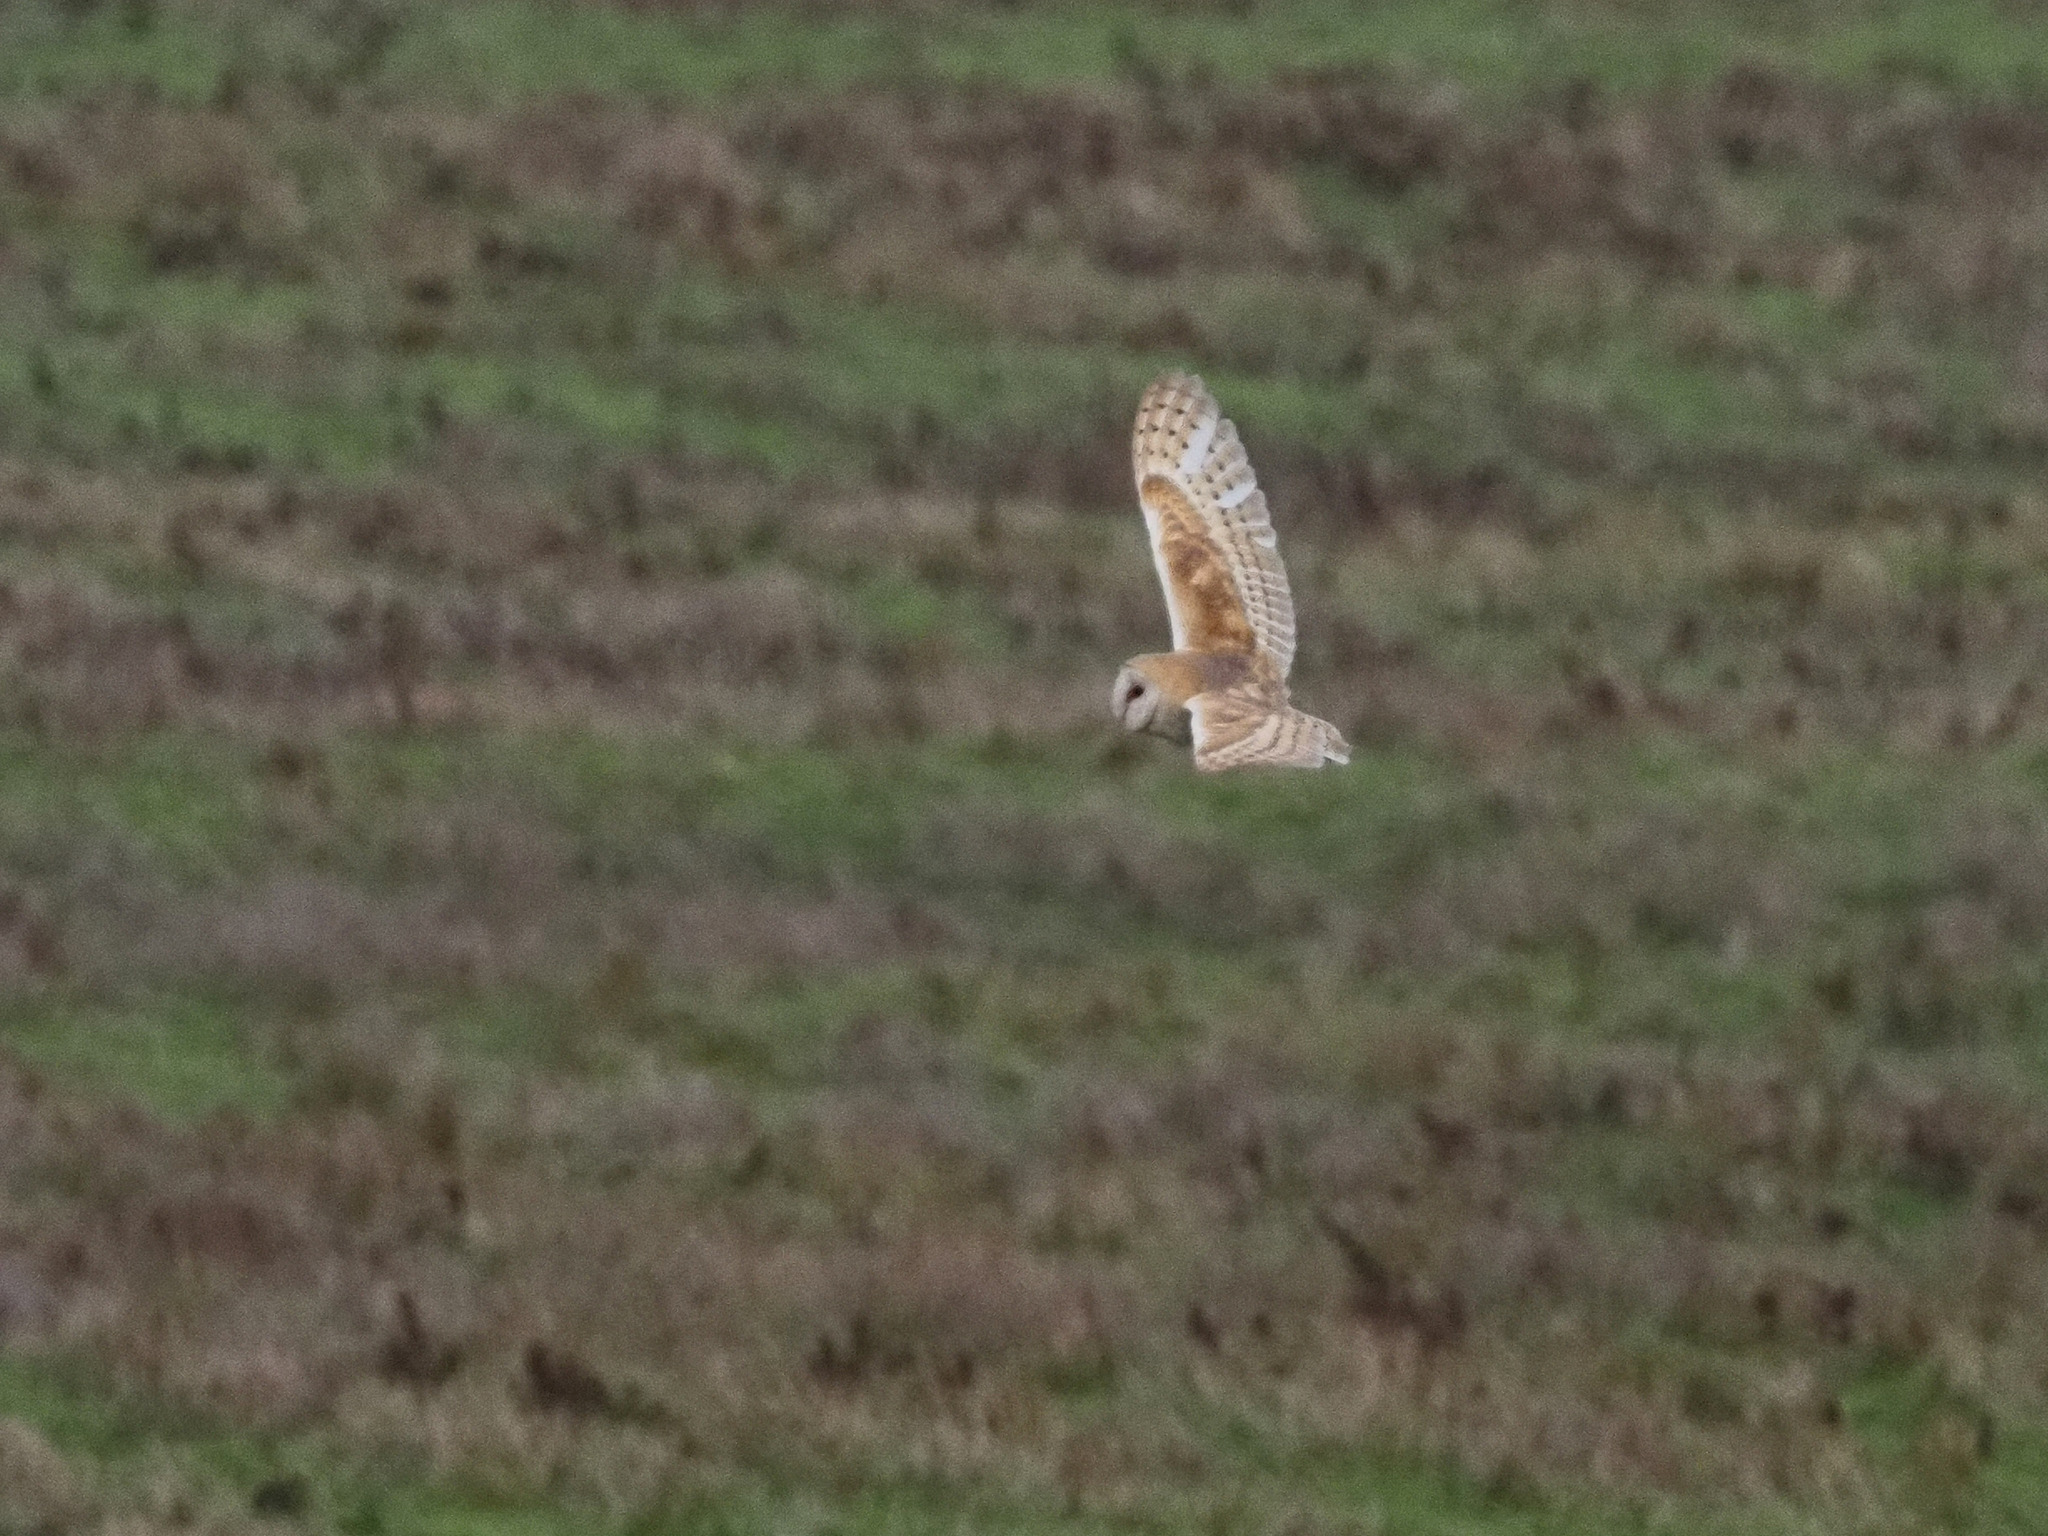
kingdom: Animalia
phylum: Chordata
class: Aves
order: Strigiformes
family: Tytonidae
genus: Tyto
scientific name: Tyto alba
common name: Barn owl
